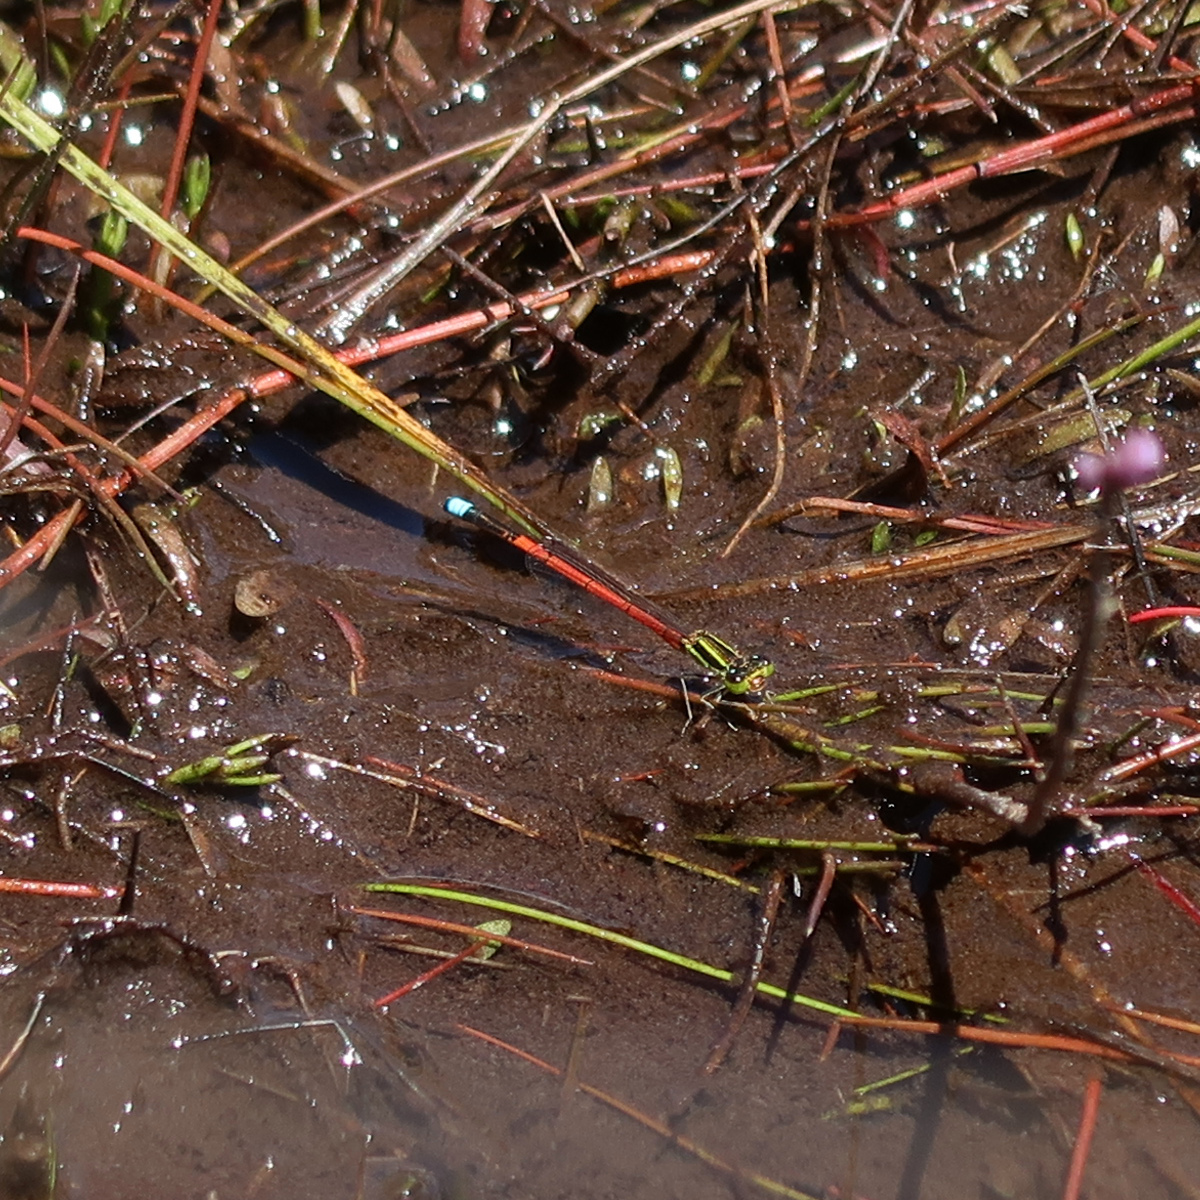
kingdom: Animalia
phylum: Arthropoda
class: Insecta
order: Odonata
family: Coenagrionidae
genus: Ischnura
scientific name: Ischnura aurora
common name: Gossamer damselfly
